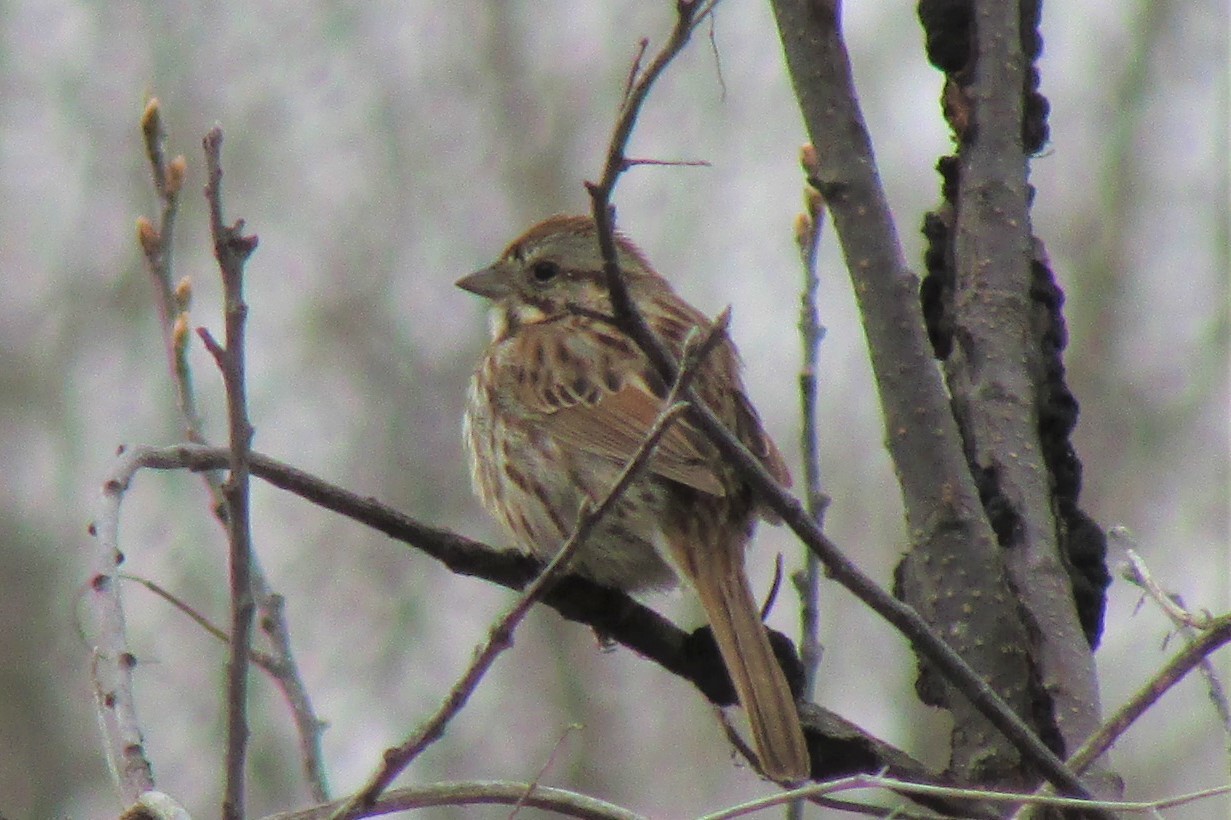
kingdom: Animalia
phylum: Chordata
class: Aves
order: Passeriformes
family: Passerellidae
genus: Melospiza
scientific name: Melospiza melodia
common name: Song sparrow
